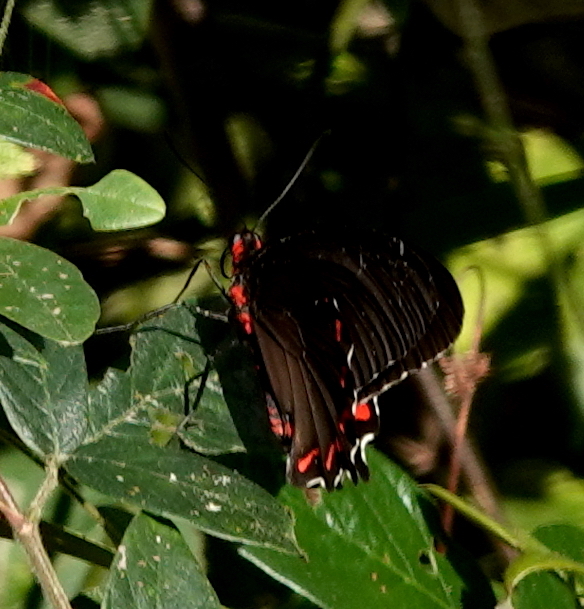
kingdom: Animalia
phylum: Arthropoda
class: Insecta
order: Lepidoptera
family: Papilionidae
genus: Parides
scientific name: Parides montezuma
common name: Montezuma's cattleheart
